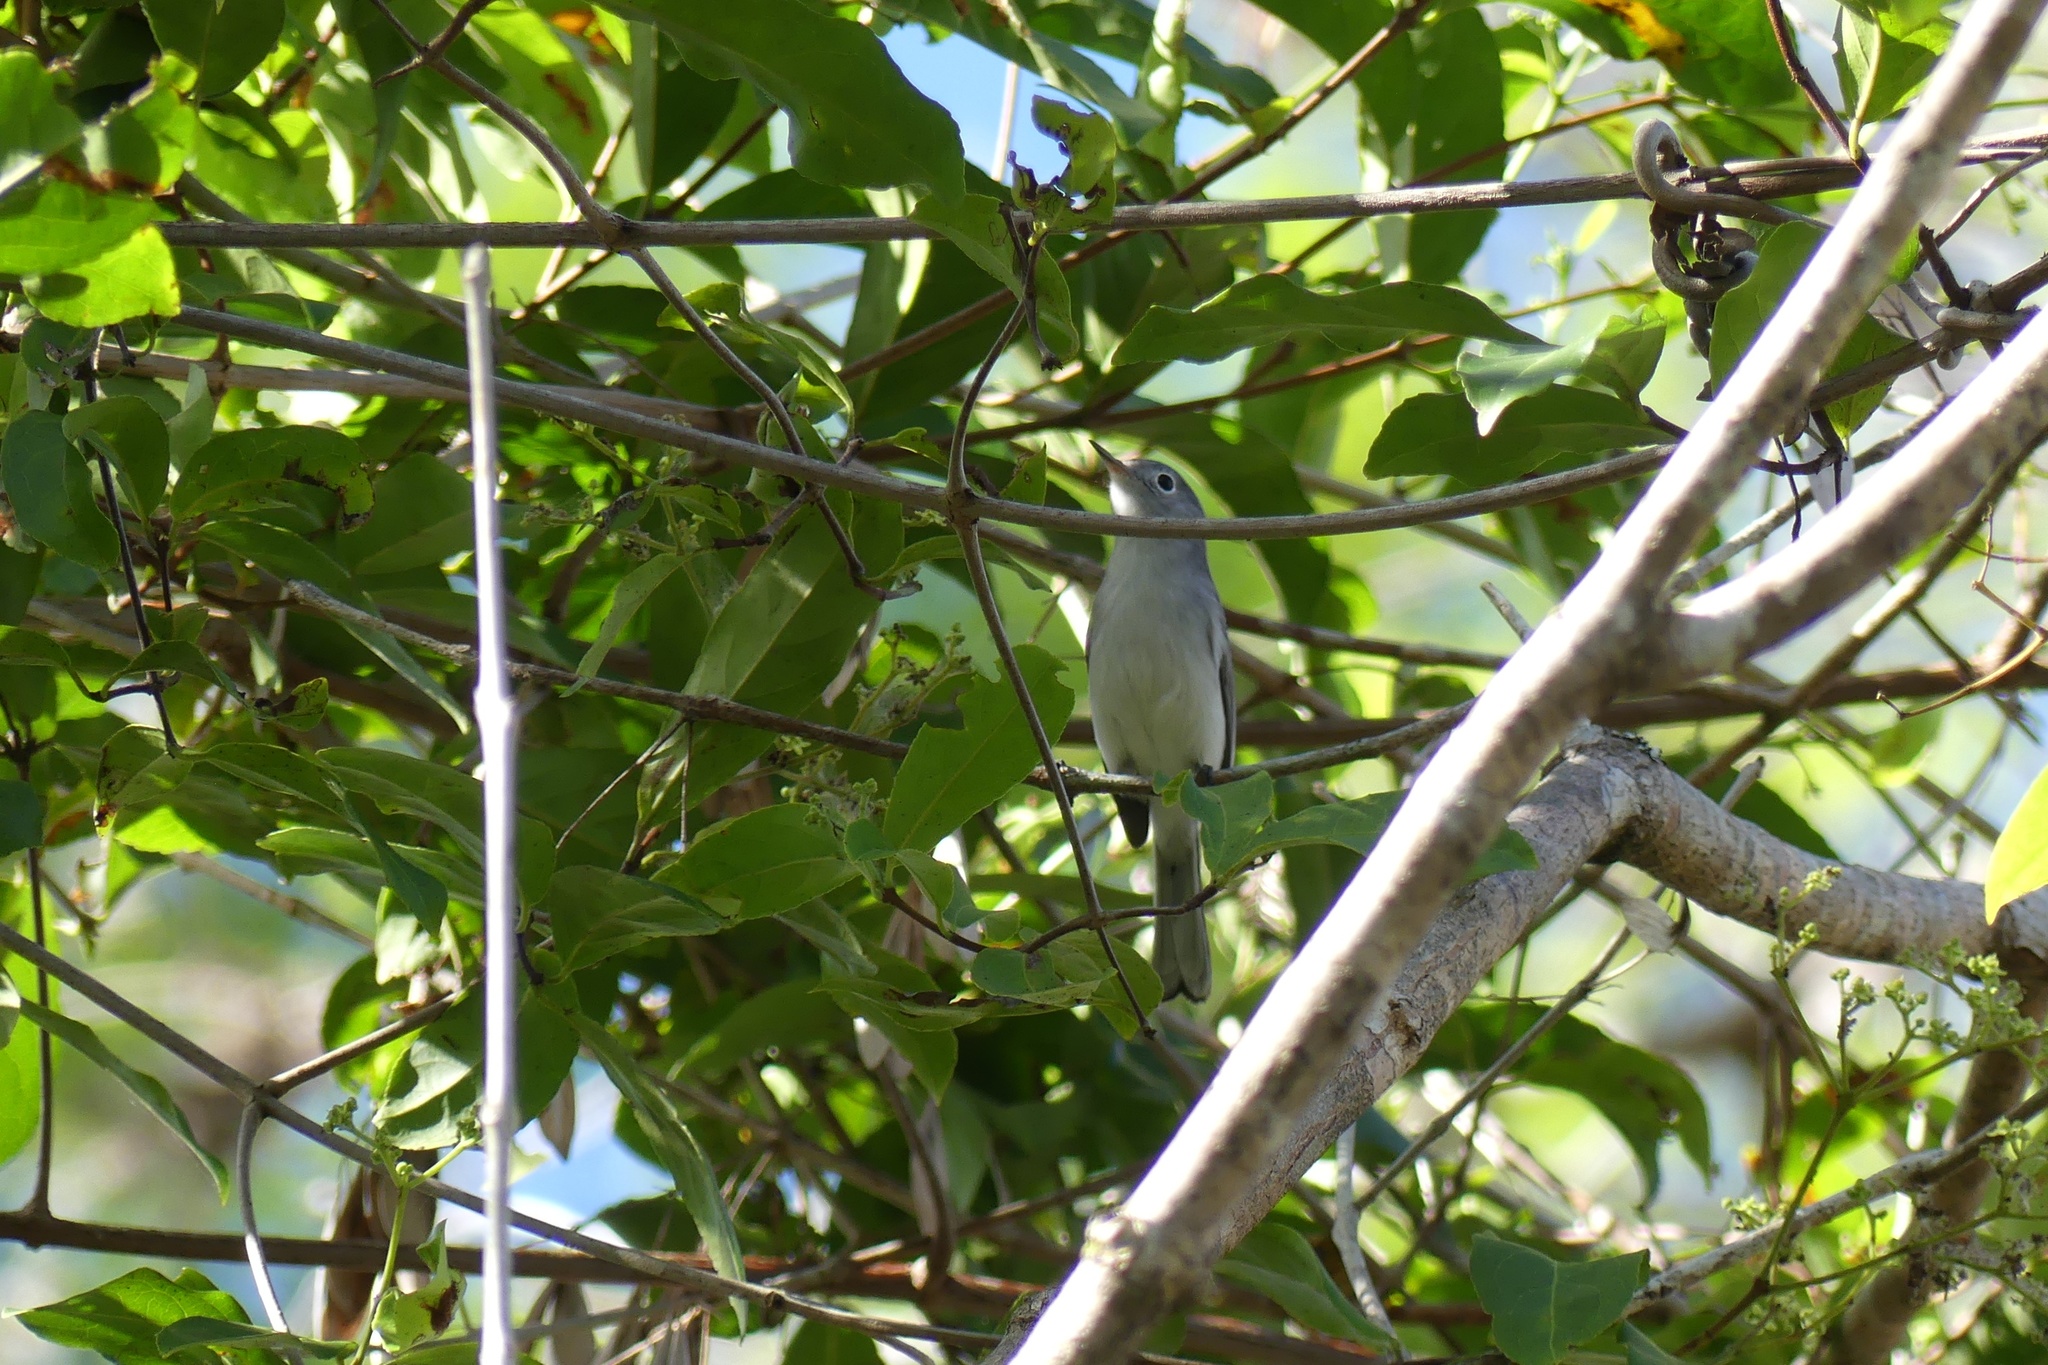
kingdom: Animalia
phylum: Chordata
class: Aves
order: Passeriformes
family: Polioptilidae
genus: Polioptila
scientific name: Polioptila caerulea
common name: Blue-gray gnatcatcher
